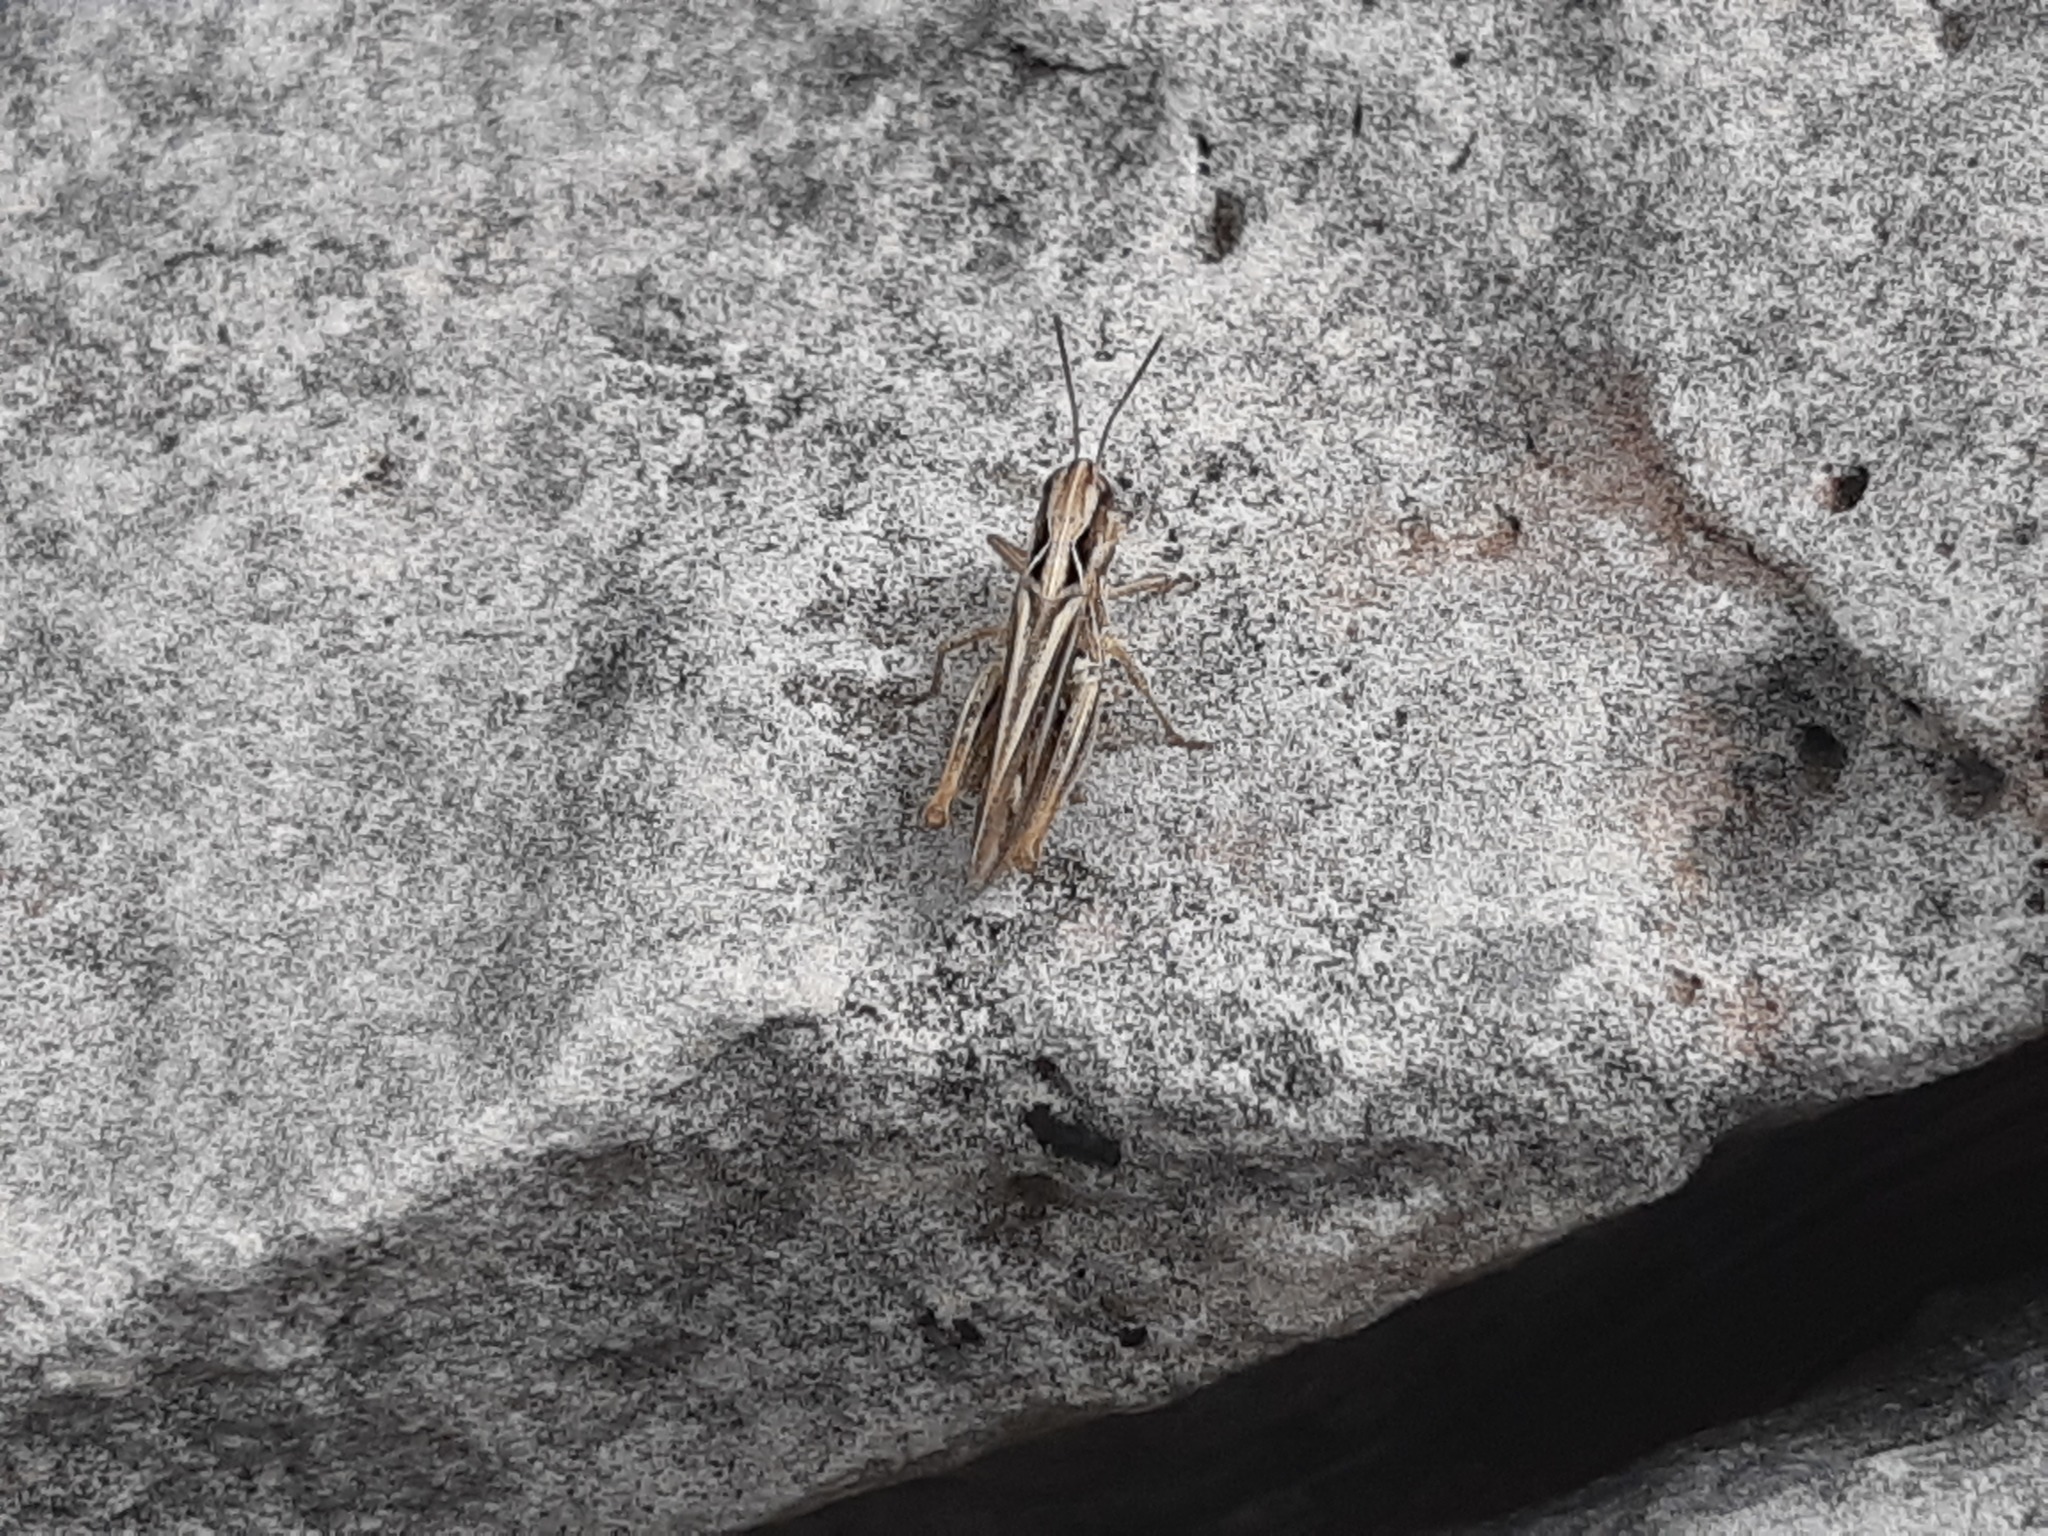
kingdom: Animalia
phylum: Arthropoda
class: Insecta
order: Orthoptera
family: Acrididae
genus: Omocestus
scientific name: Omocestus haemorrhoidalis
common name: Orange-tipped grasshopper
